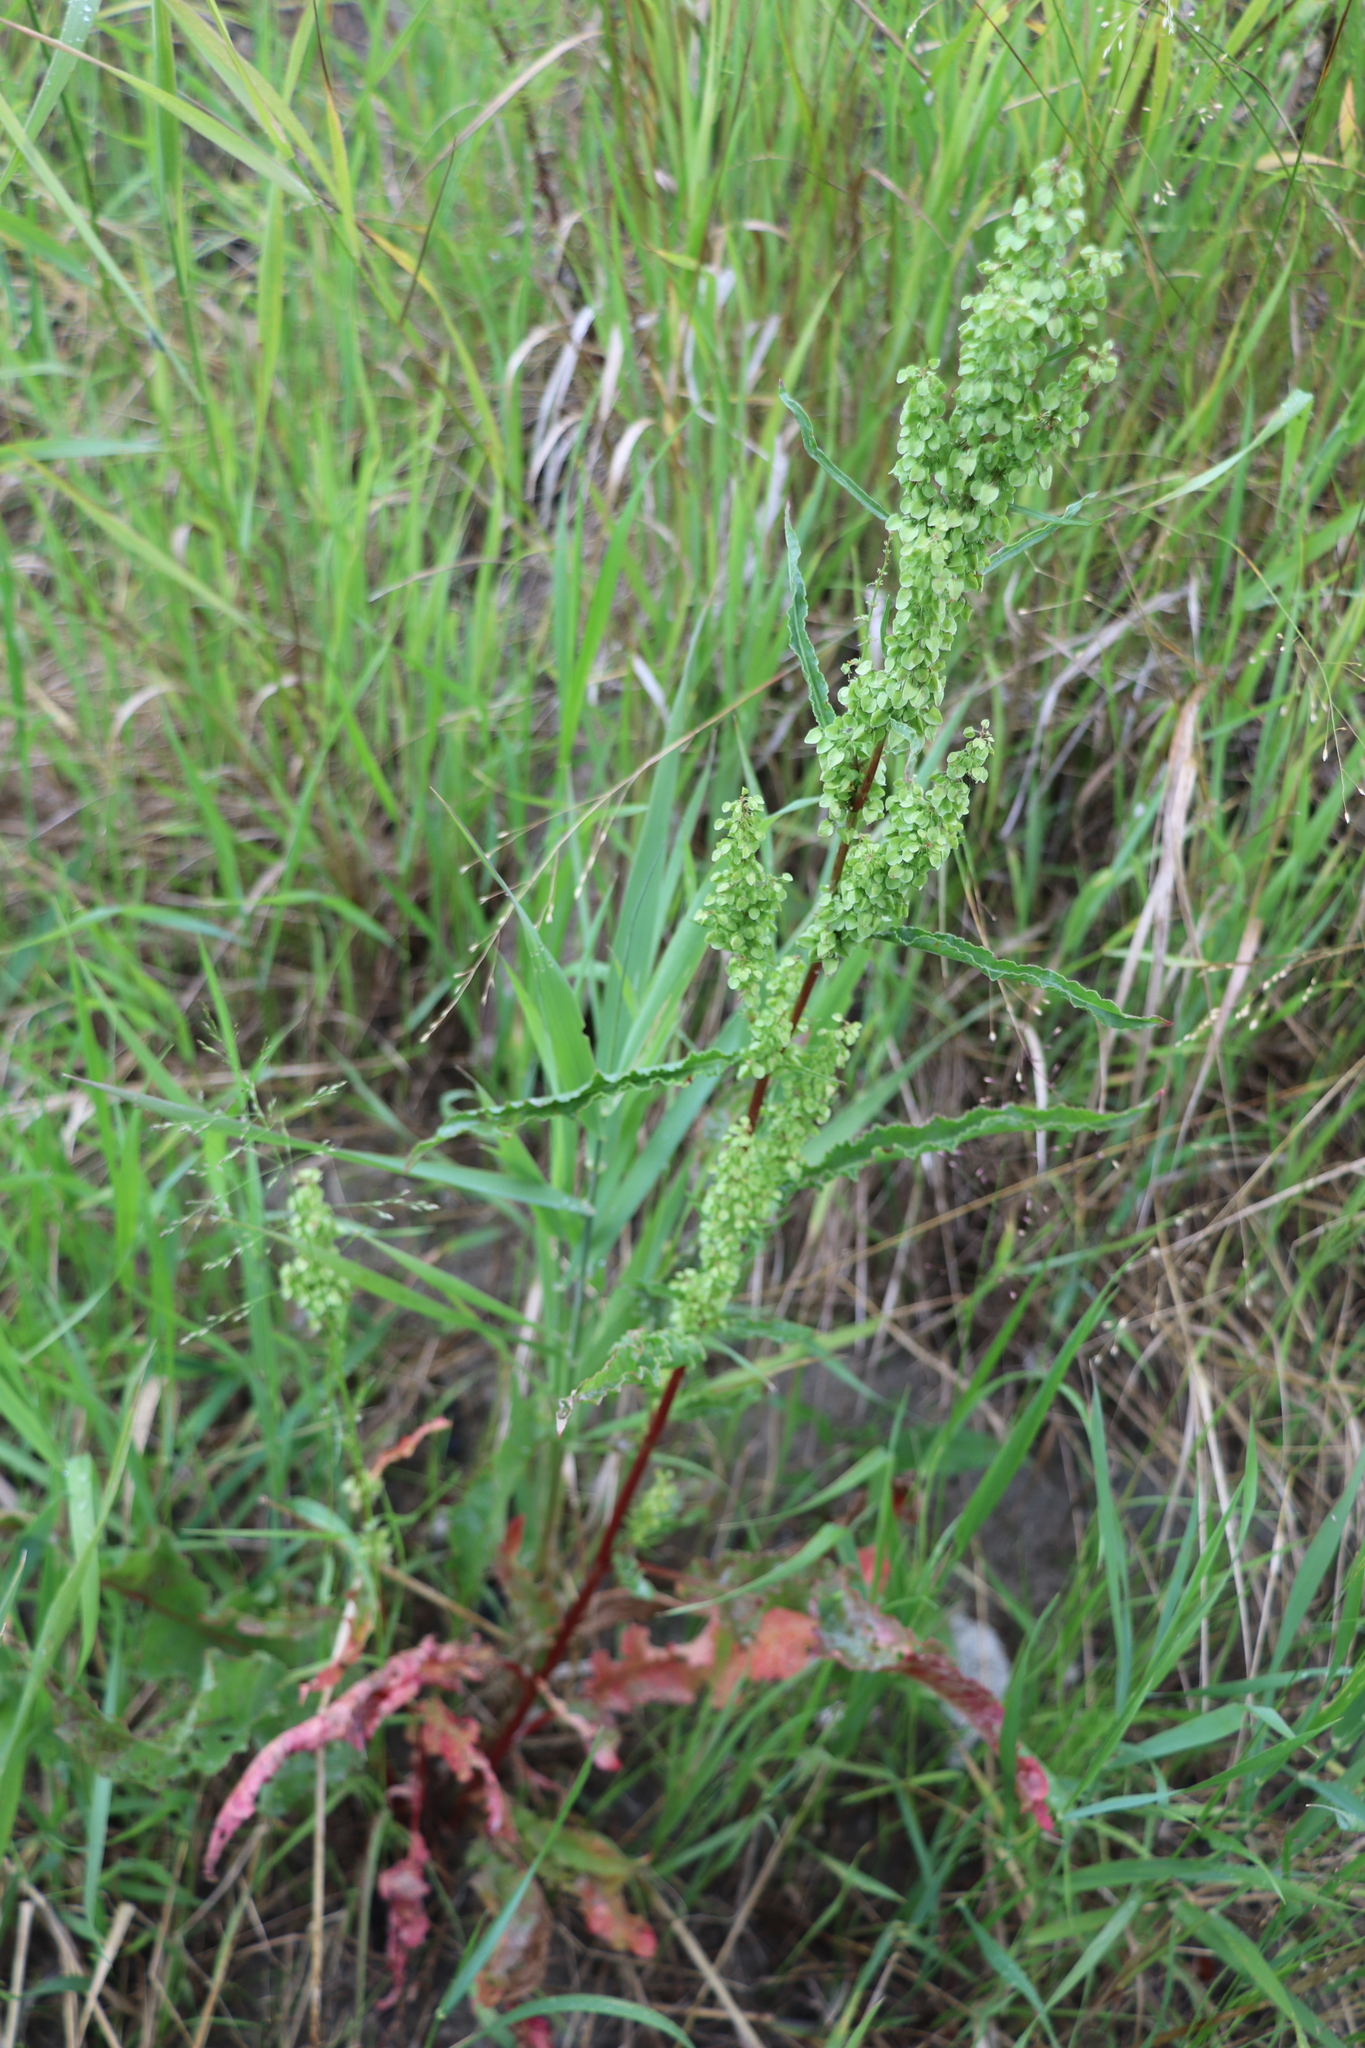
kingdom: Plantae
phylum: Tracheophyta
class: Magnoliopsida
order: Caryophyllales
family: Polygonaceae
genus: Rumex
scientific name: Rumex pseudonatronatus
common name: Field dock
